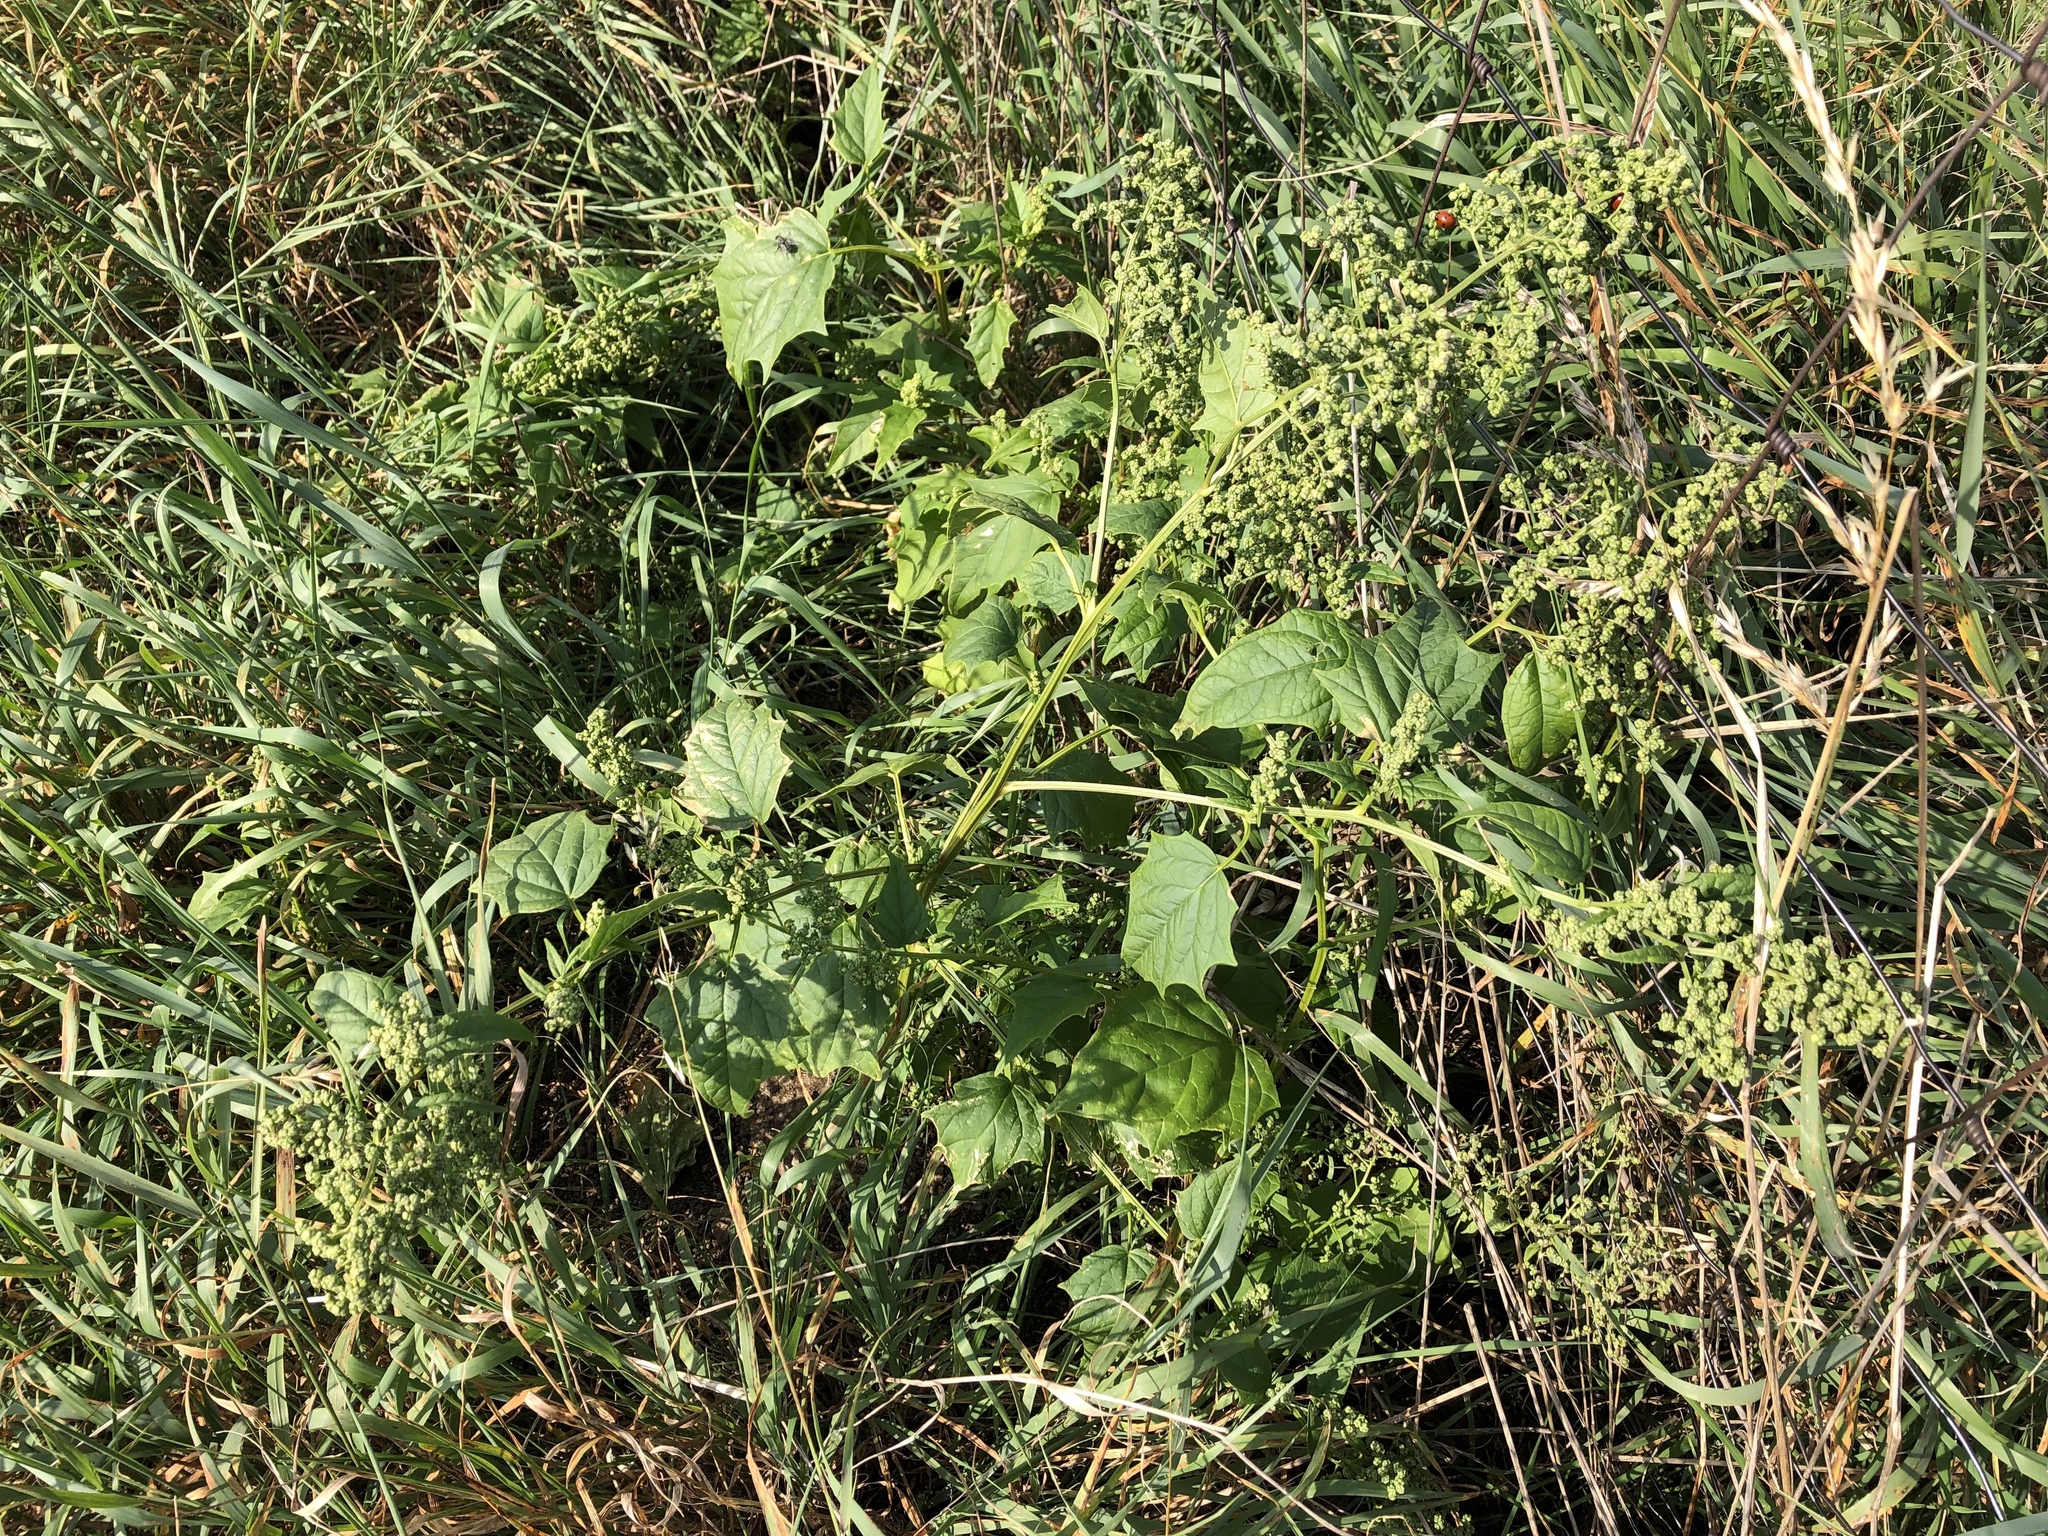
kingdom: Plantae
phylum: Tracheophyta
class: Magnoliopsida
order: Caryophyllales
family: Amaranthaceae
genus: Chenopodiastrum
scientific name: Chenopodiastrum hybridum
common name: Mapleleaf goosefoot
